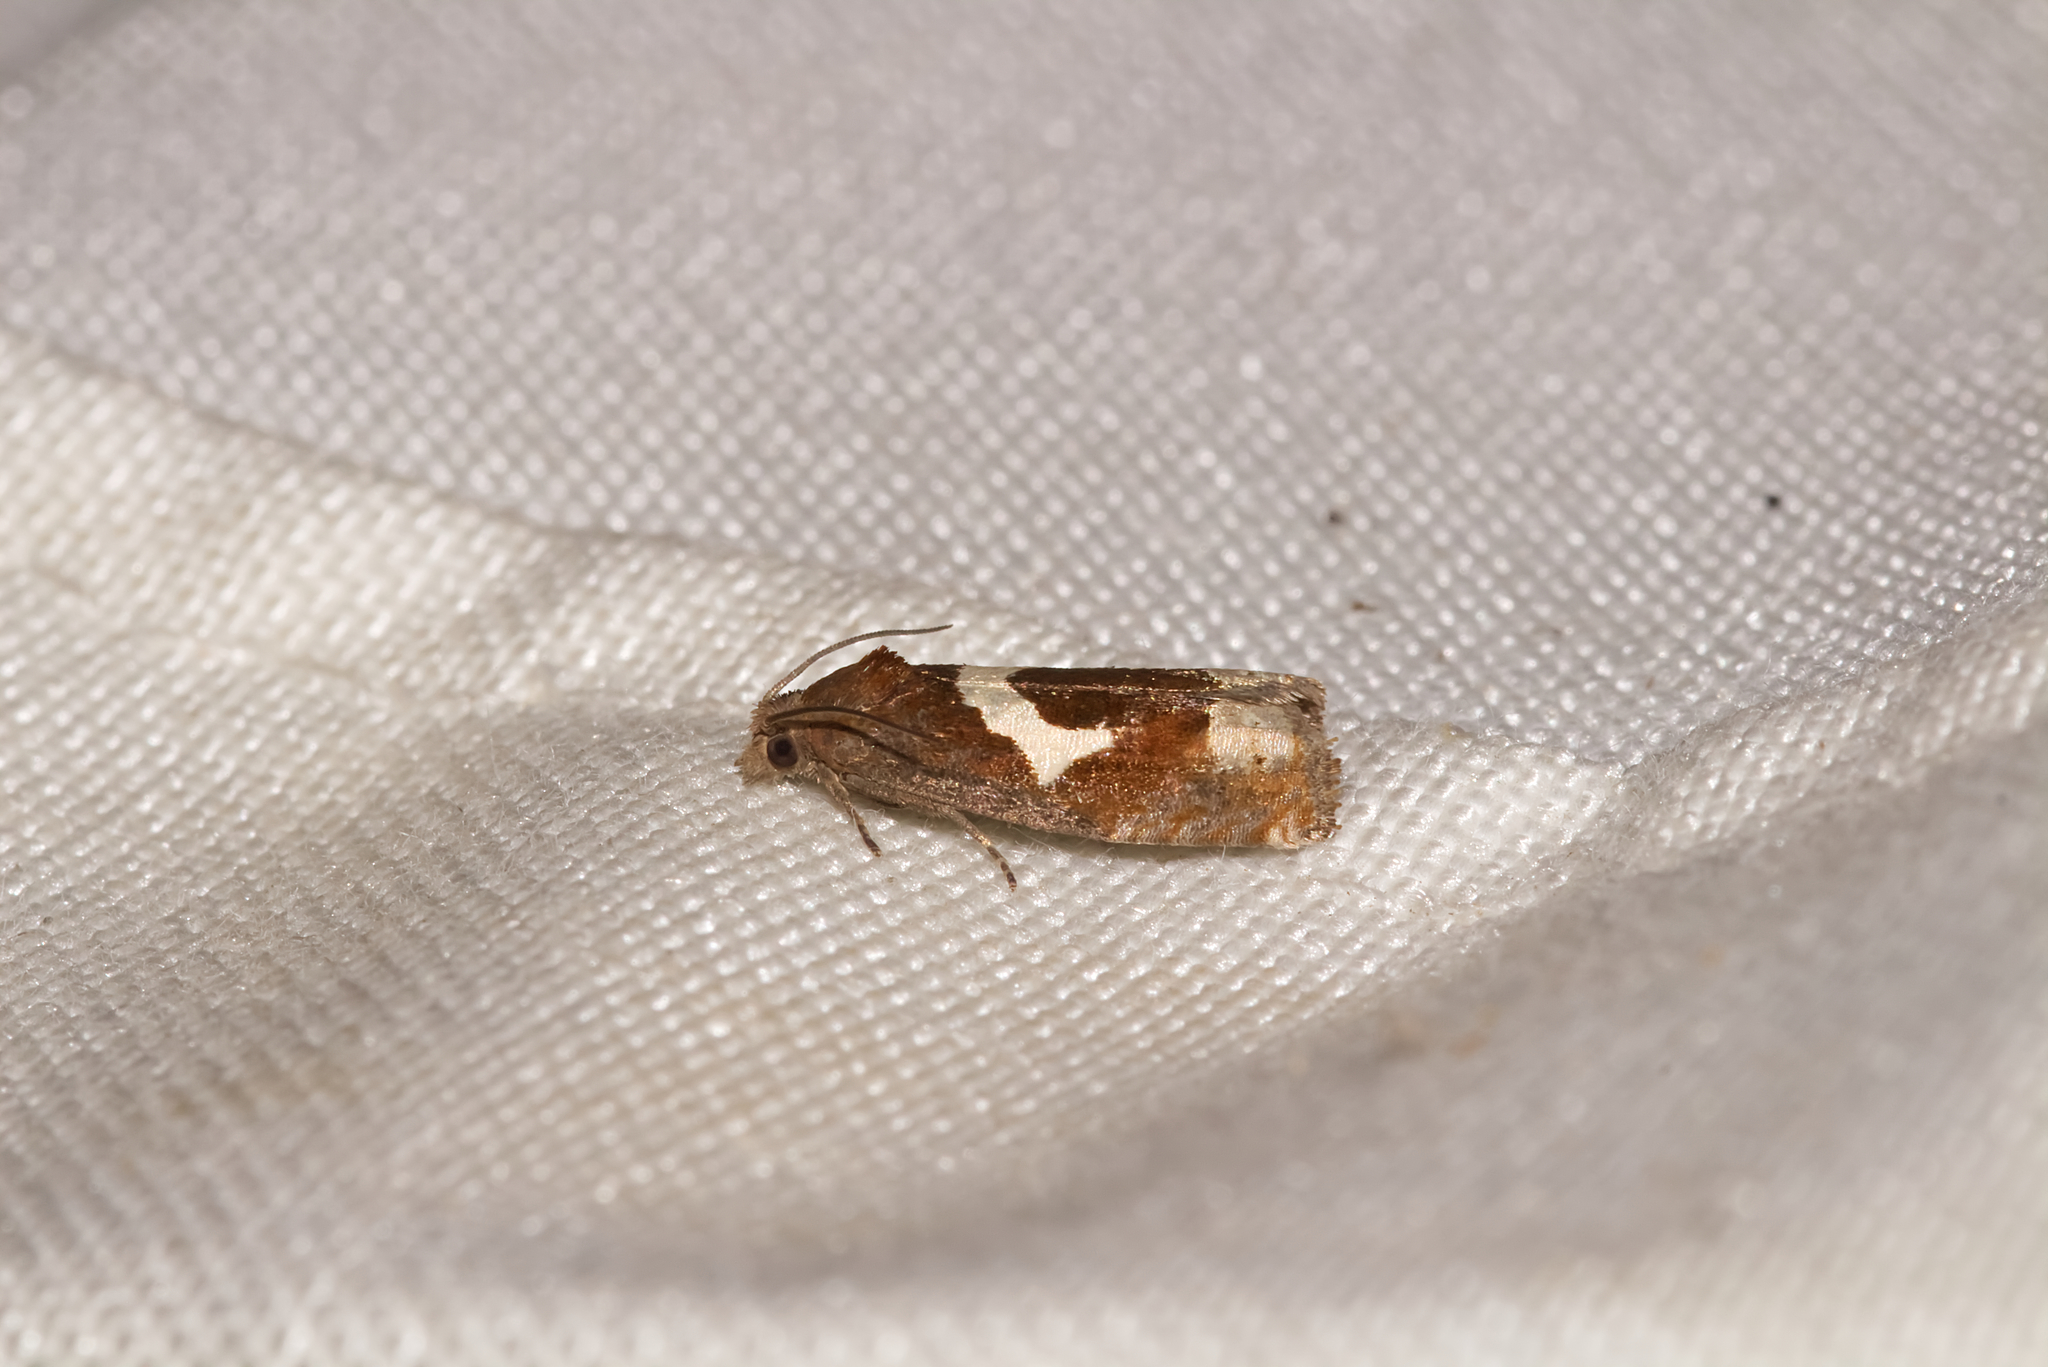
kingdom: Animalia
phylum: Arthropoda
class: Insecta
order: Lepidoptera
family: Tortricidae
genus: Epiblema
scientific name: Epiblema foenella
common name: White-foot bell
